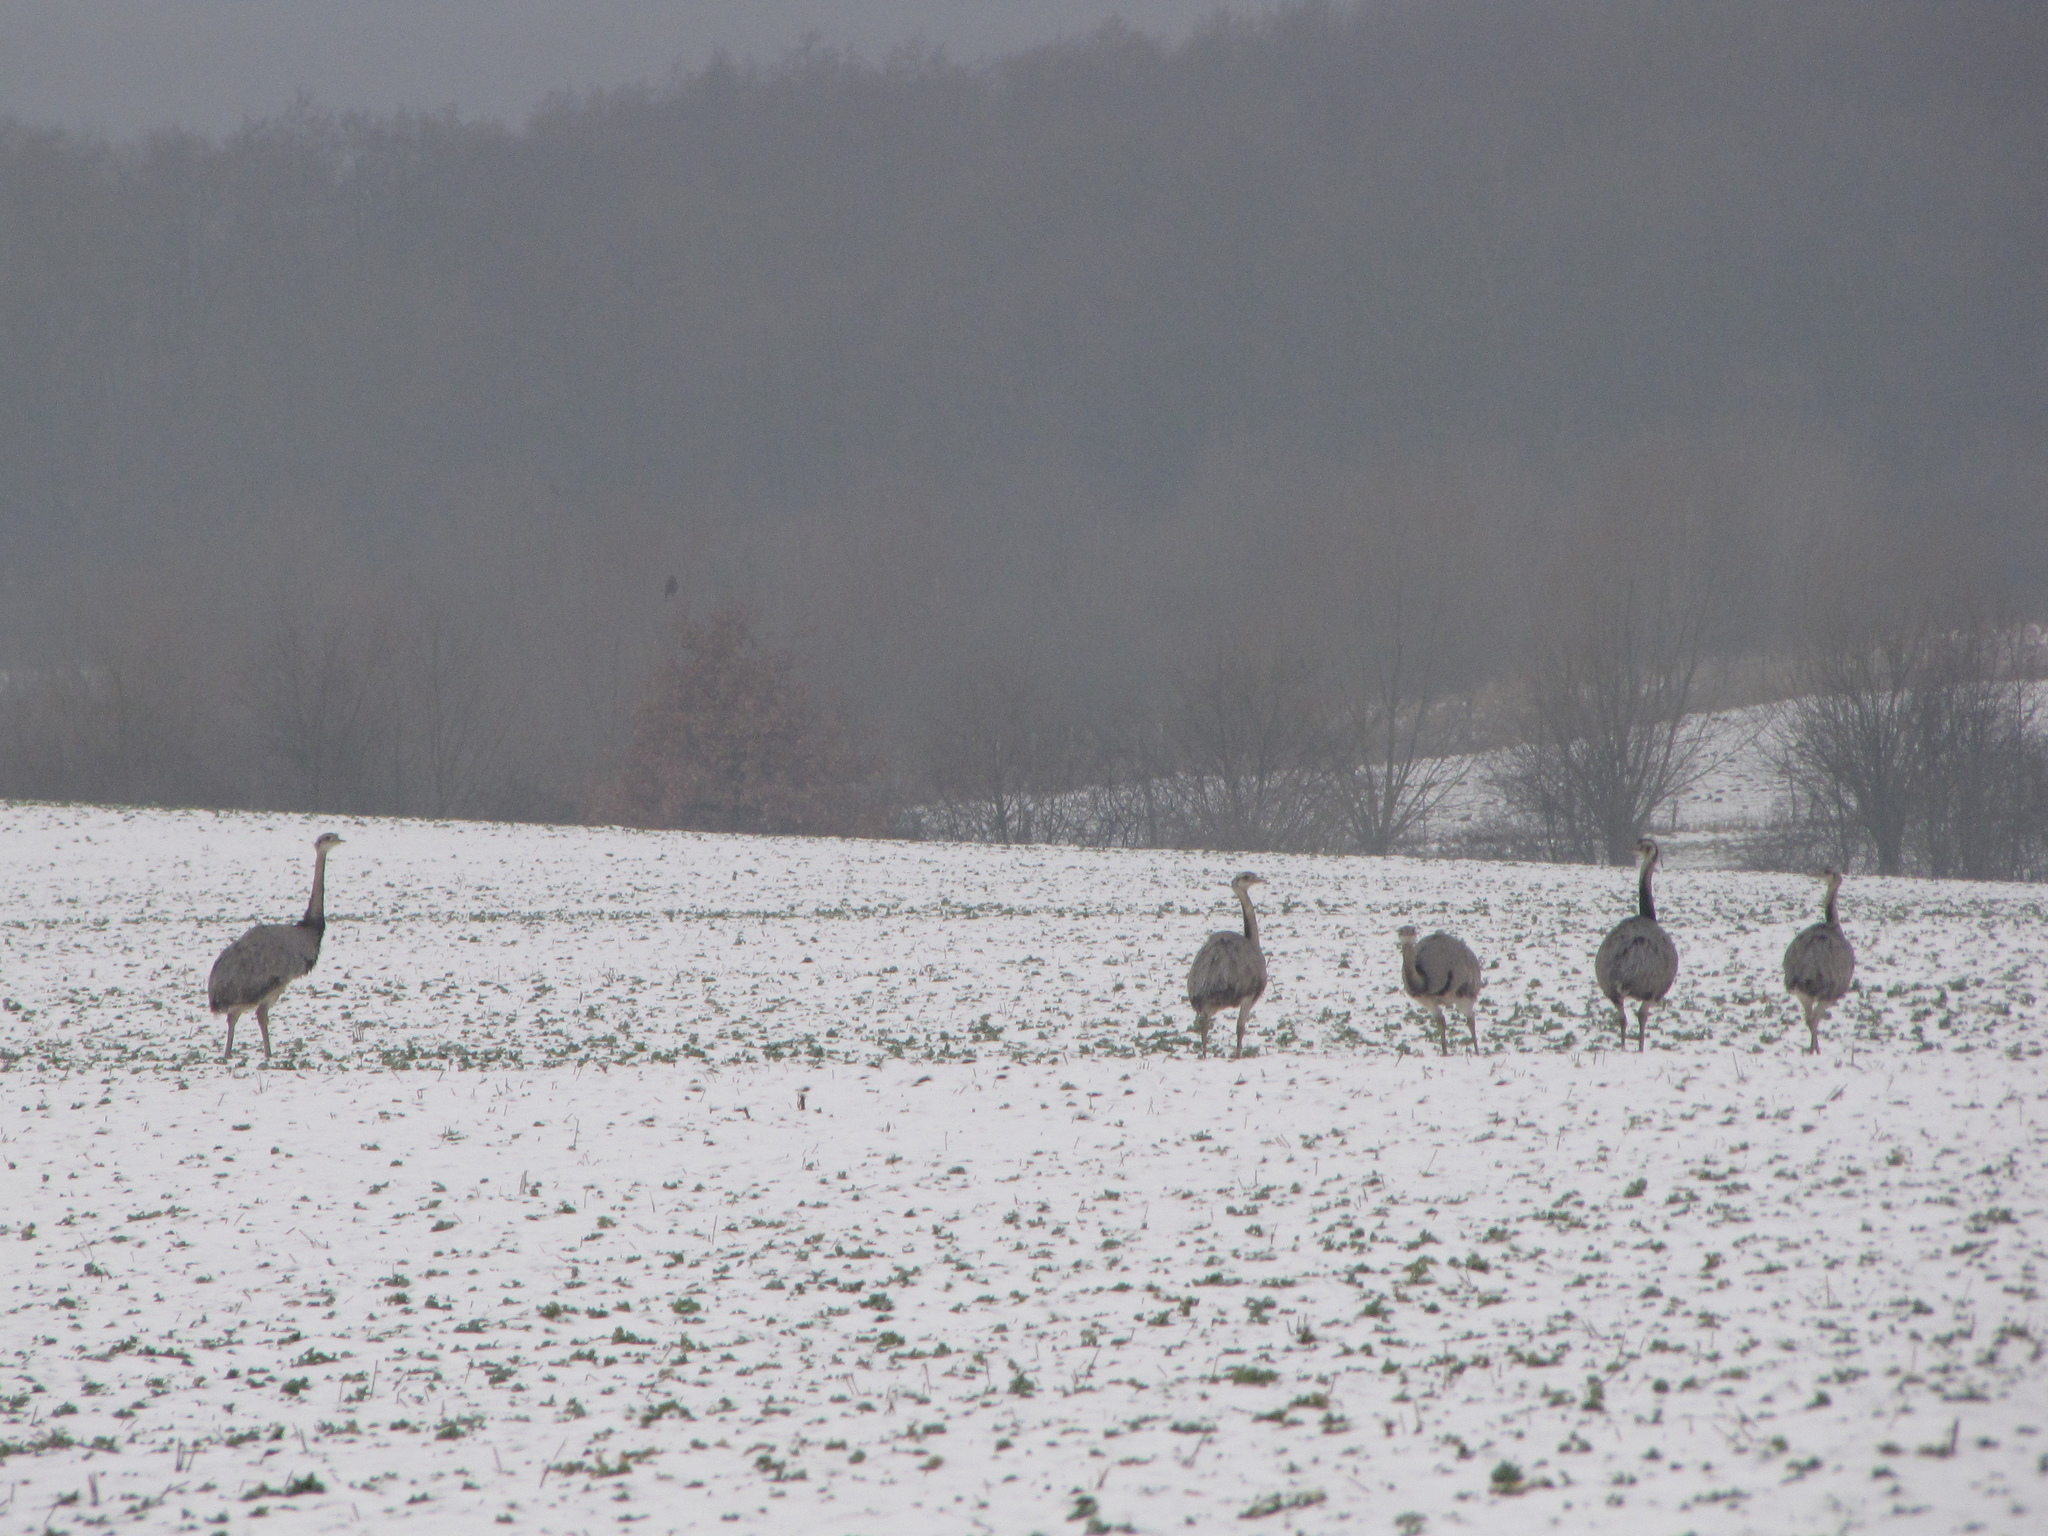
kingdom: Animalia
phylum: Chordata
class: Aves
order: Rheiformes
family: Rheidae
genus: Rhea
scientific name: Rhea americana
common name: Greater rhea
